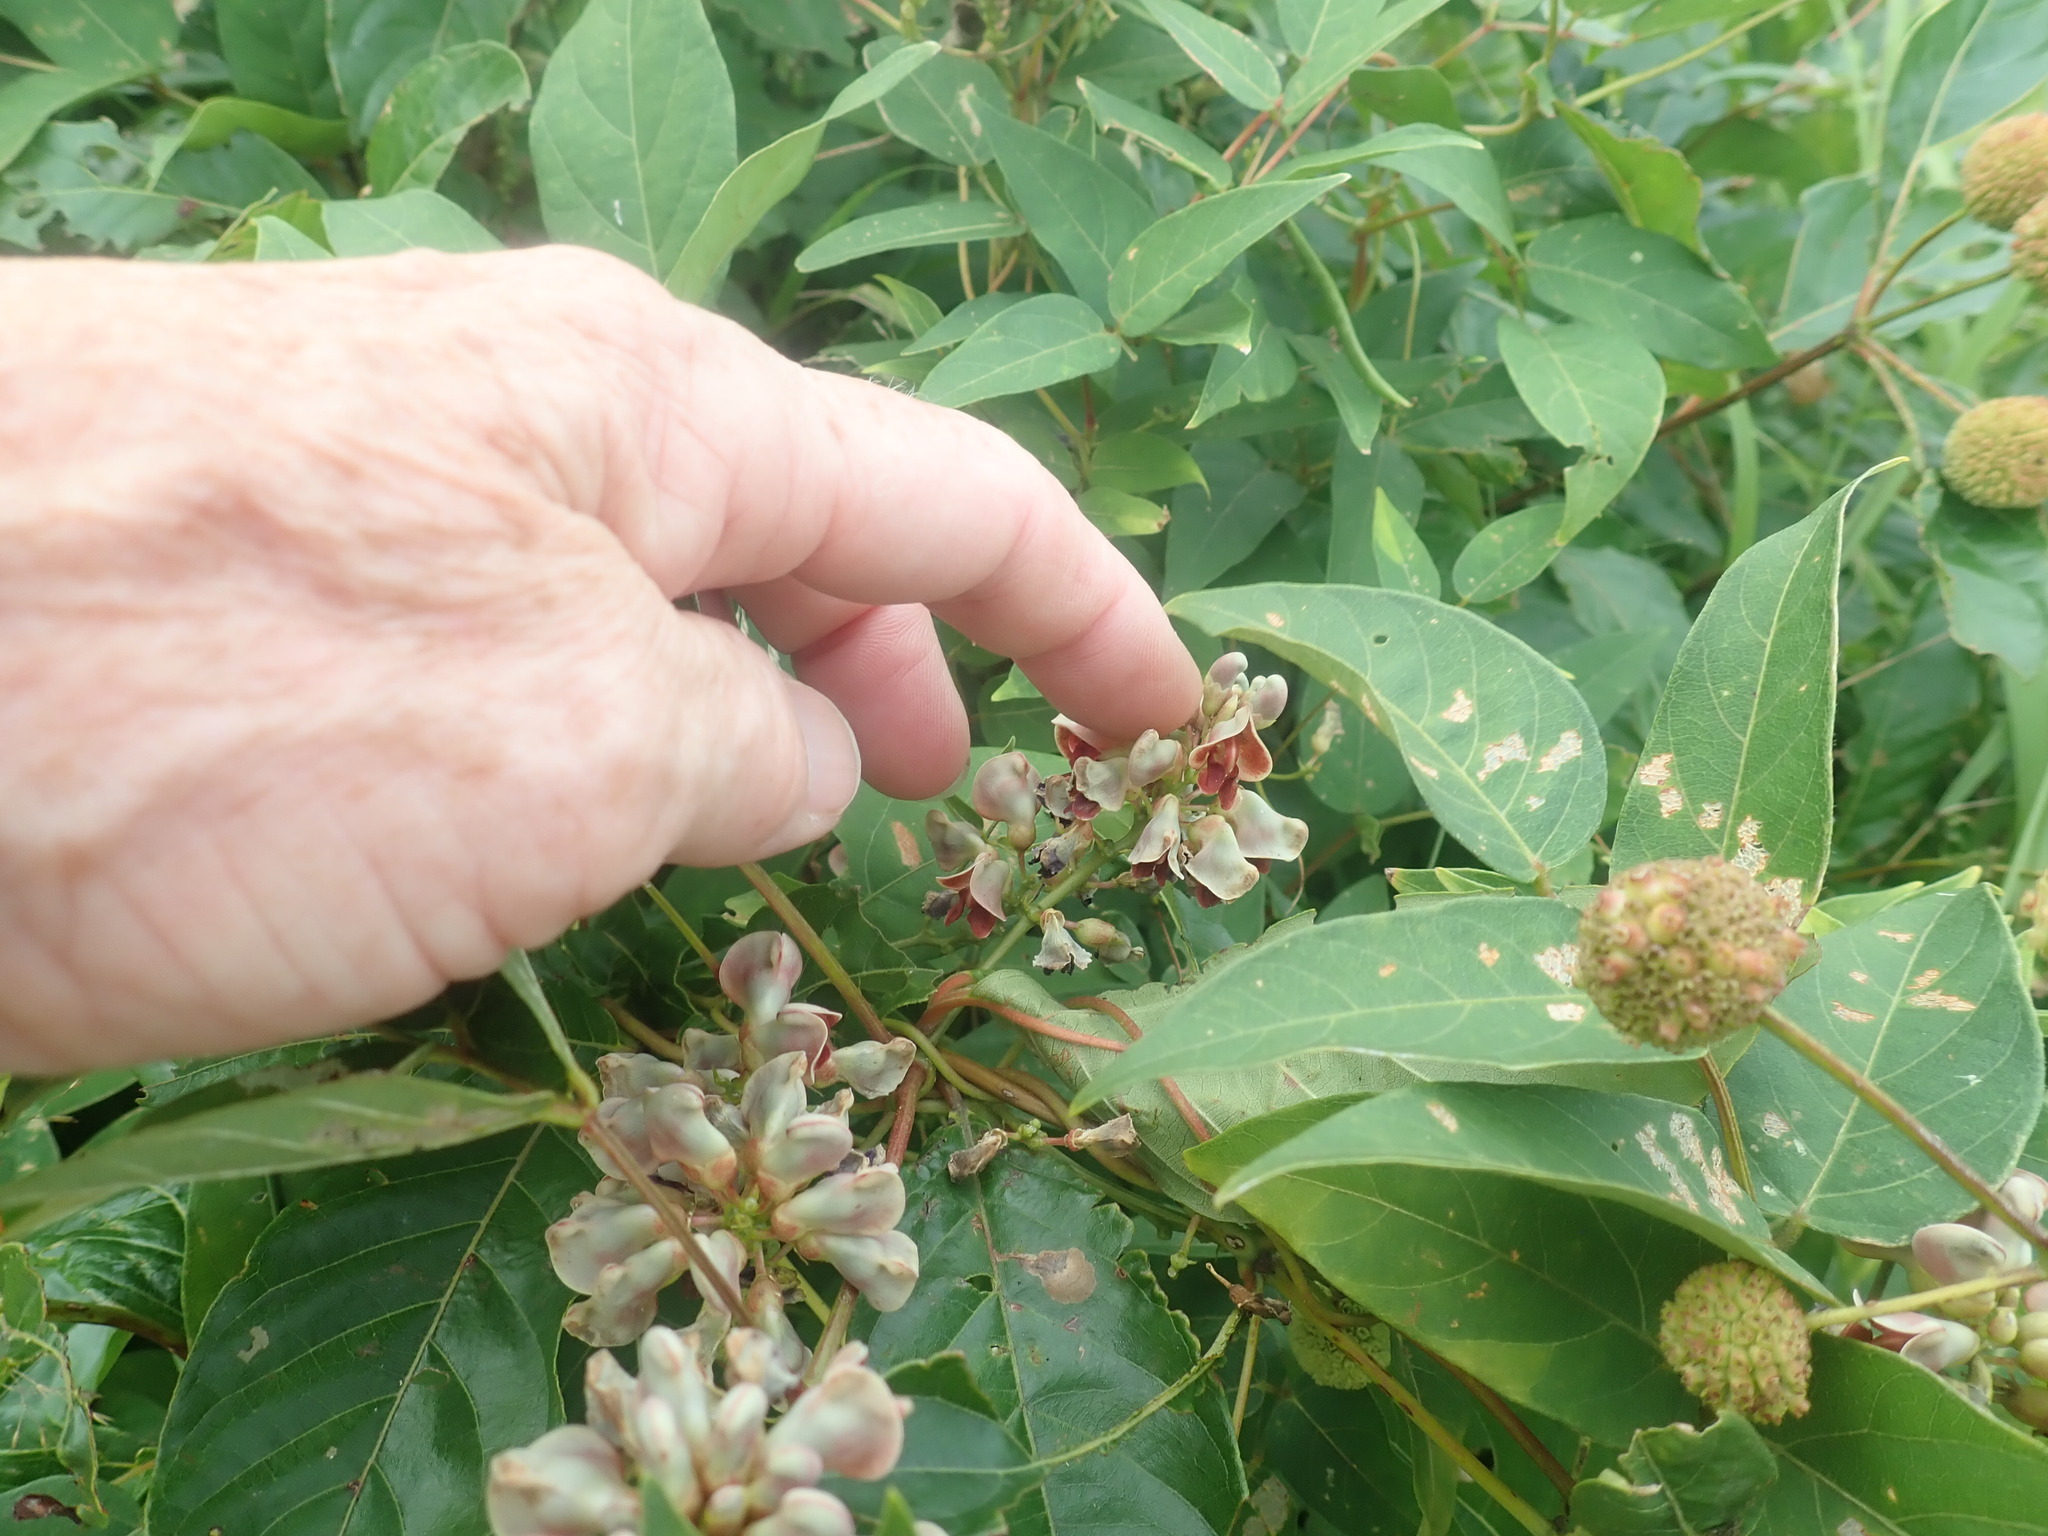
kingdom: Plantae
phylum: Tracheophyta
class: Magnoliopsida
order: Fabales
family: Fabaceae
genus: Apios
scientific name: Apios americana
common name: American potato-bean
